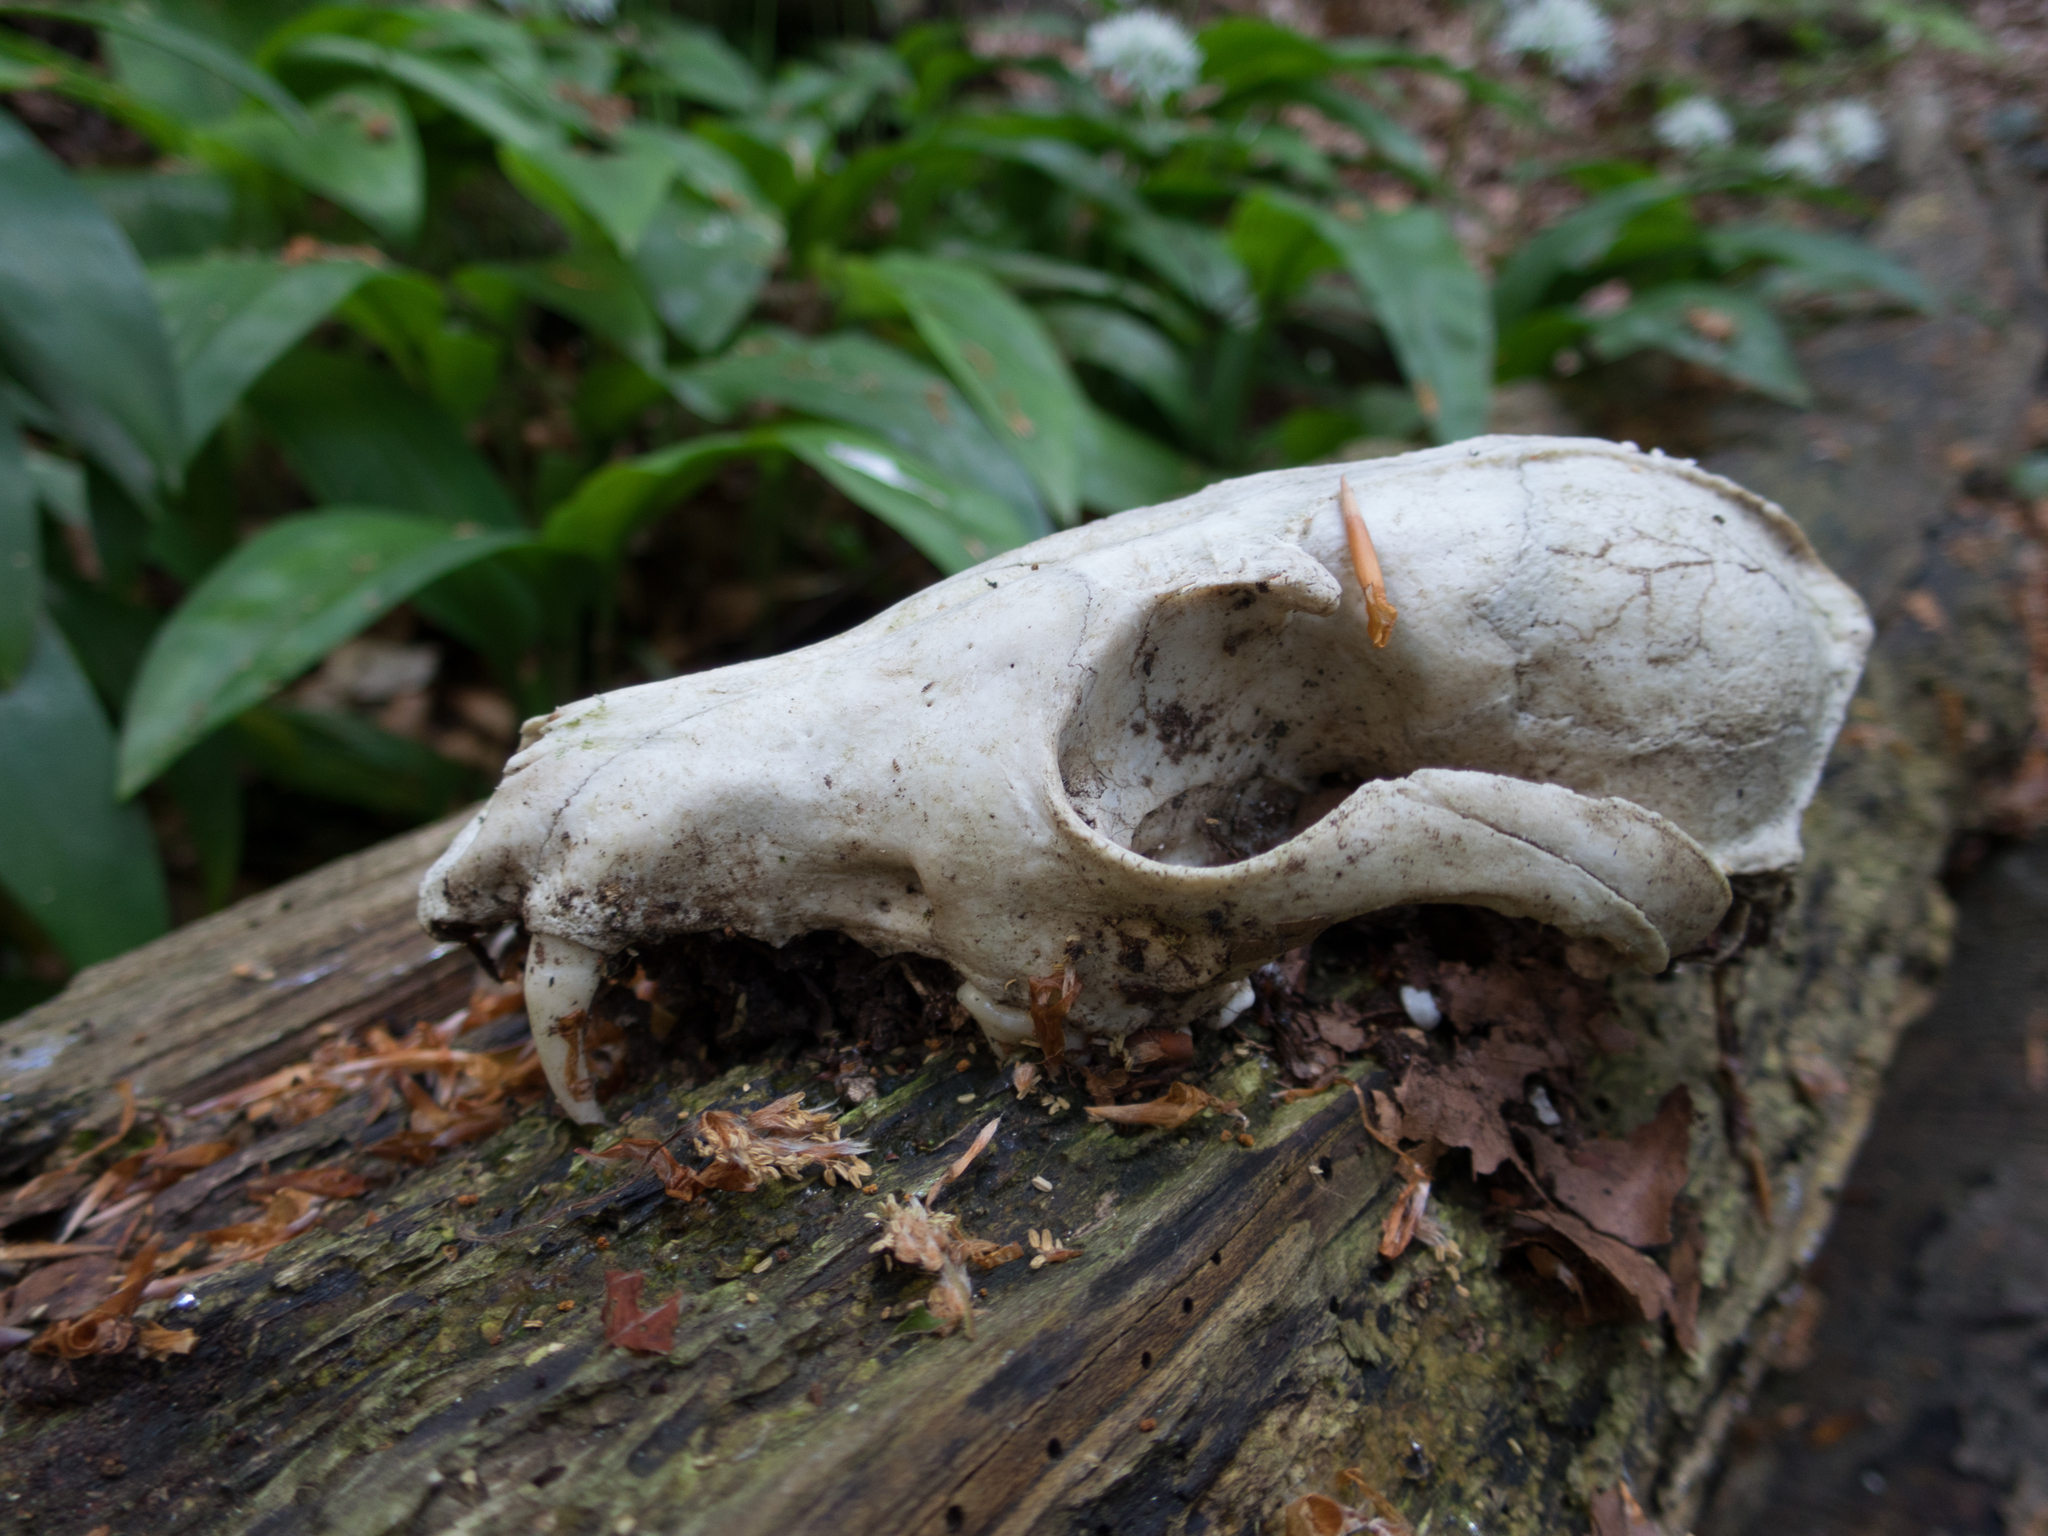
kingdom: Animalia
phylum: Chordata
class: Mammalia
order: Carnivora
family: Canidae
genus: Vulpes
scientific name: Vulpes vulpes
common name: Red fox
